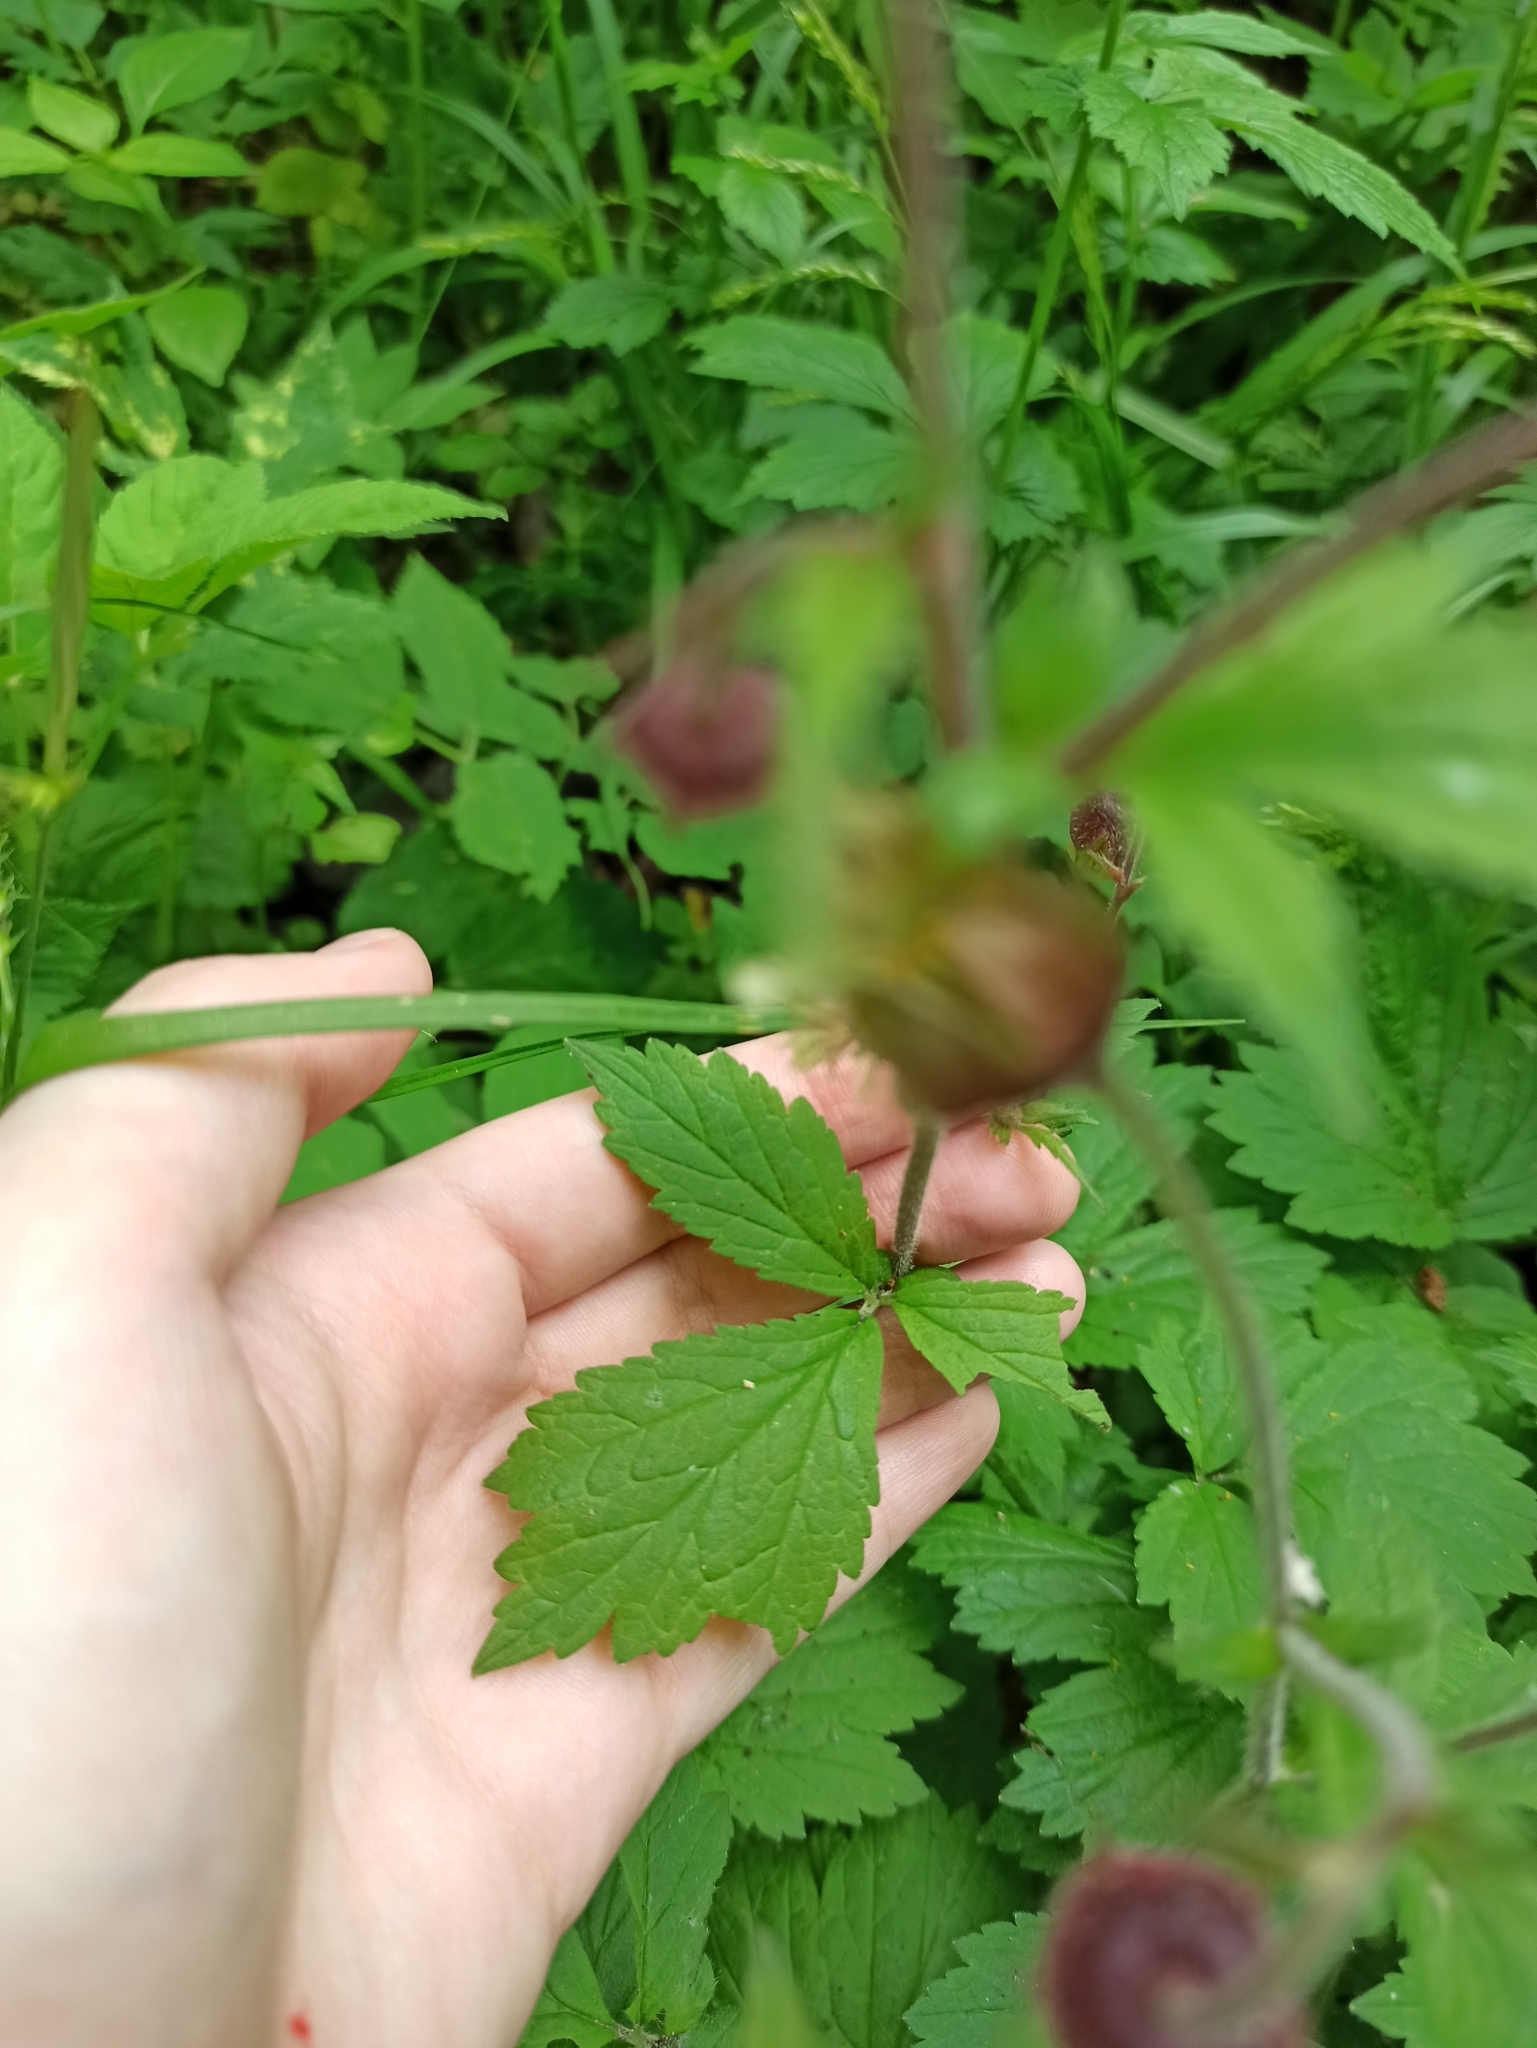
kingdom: Plantae
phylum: Tracheophyta
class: Magnoliopsida
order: Rosales
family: Rosaceae
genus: Geum
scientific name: Geum rivale
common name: Water avens
